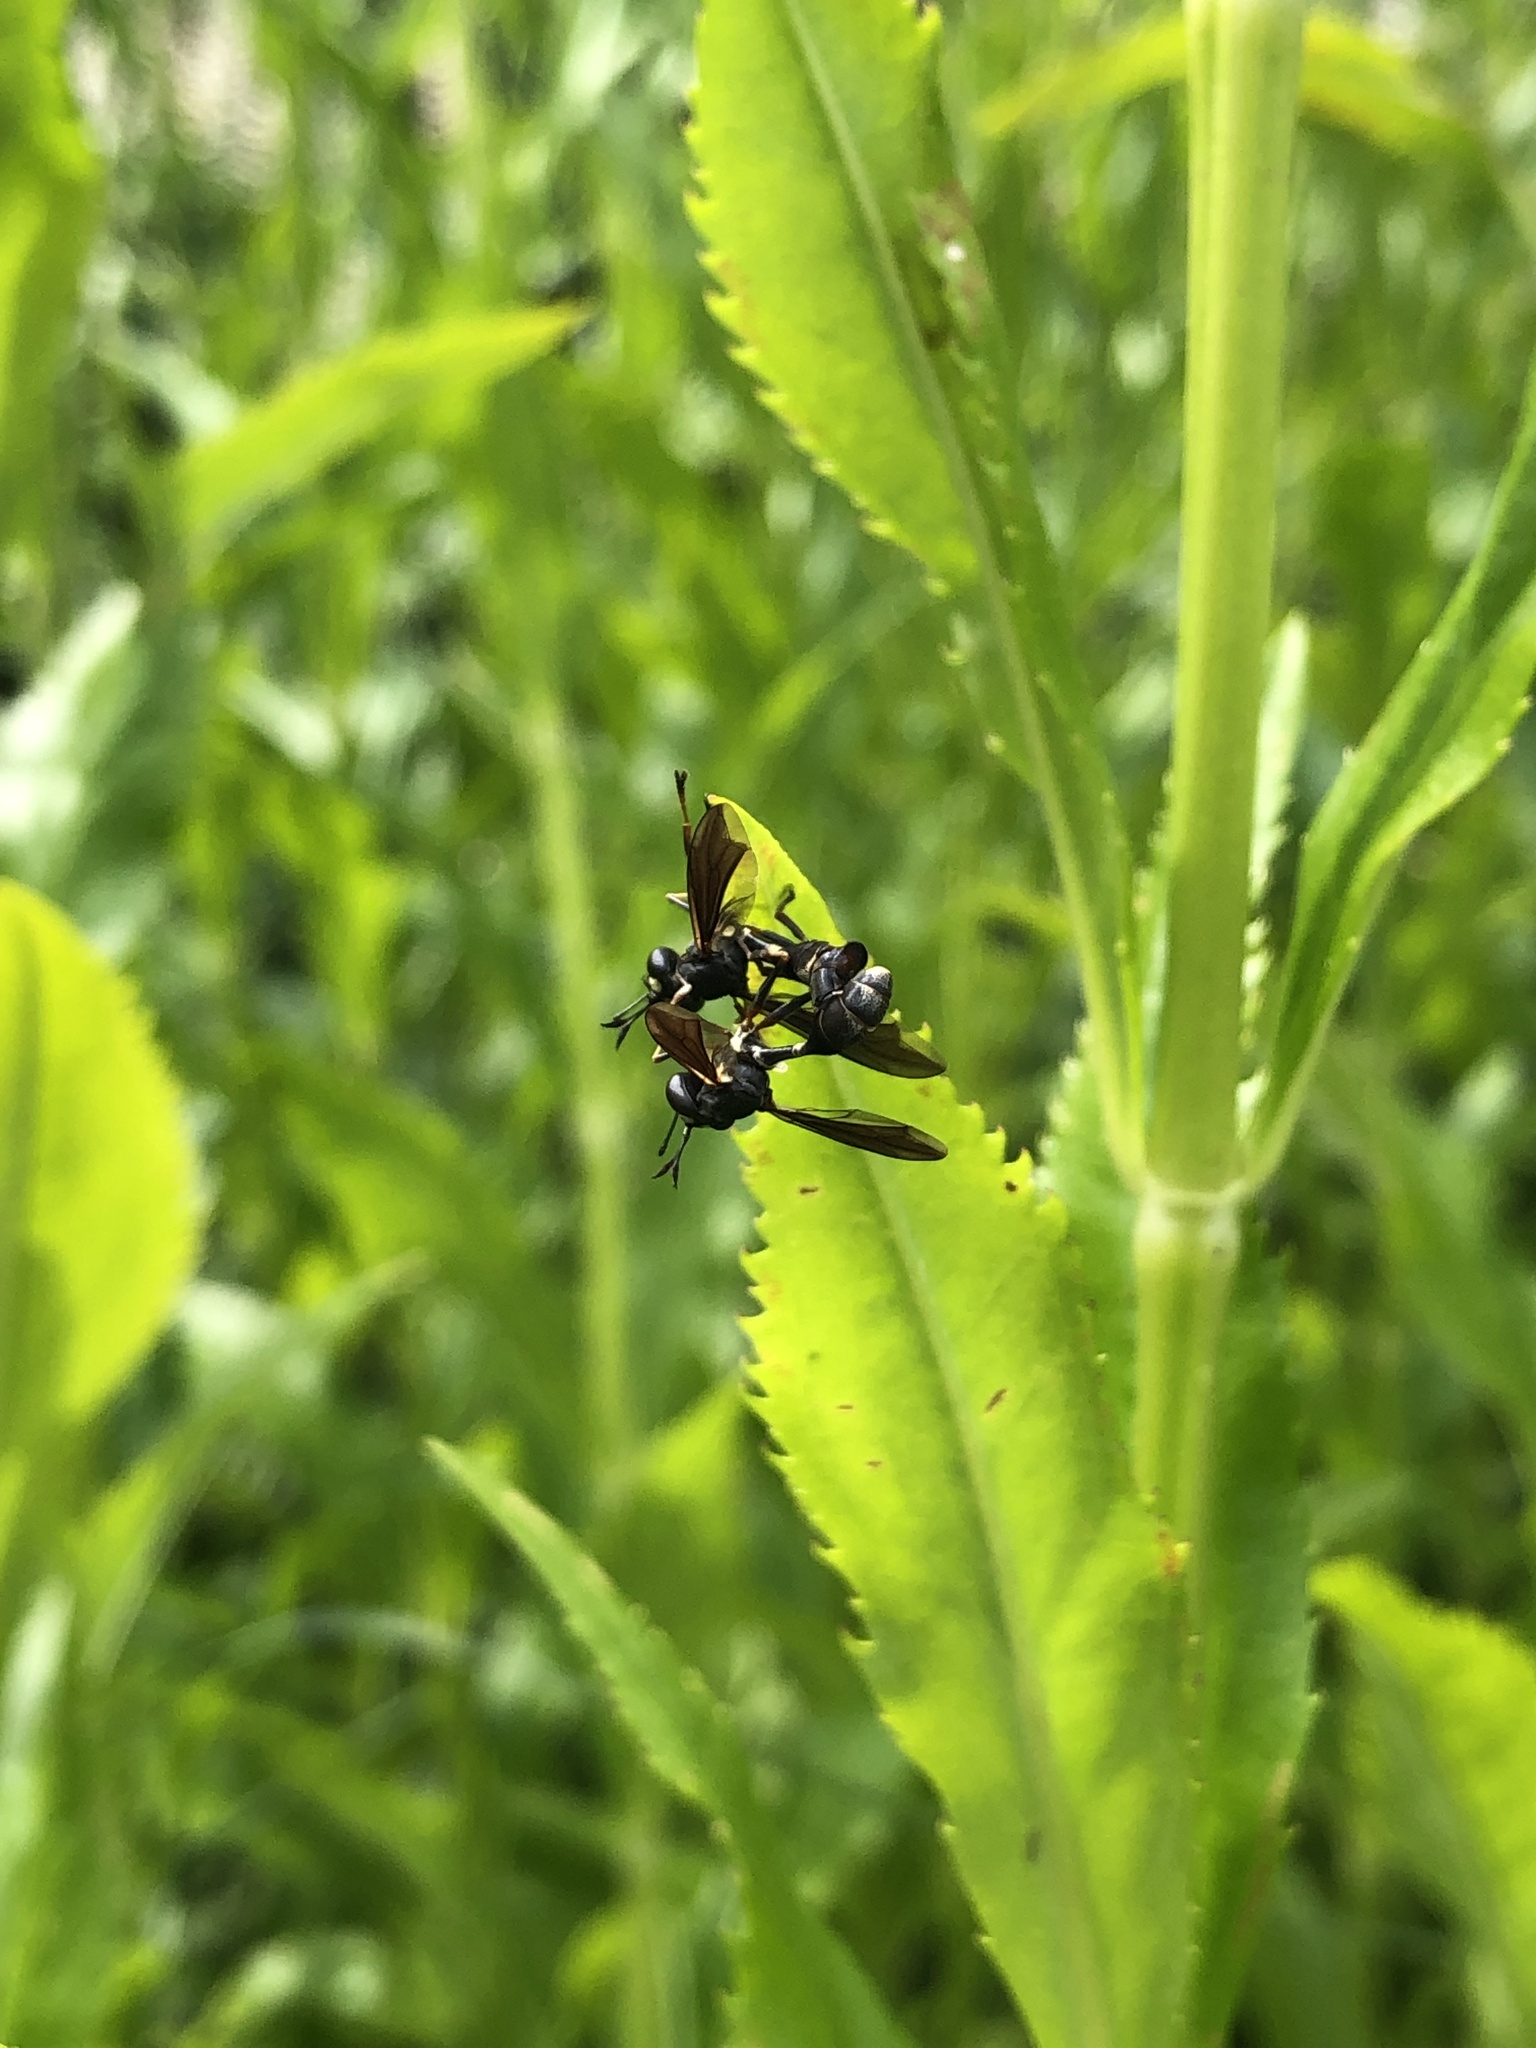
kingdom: Animalia
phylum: Arthropoda
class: Insecta
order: Diptera
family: Conopidae
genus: Physocephala
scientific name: Physocephala tibialis
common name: Common eastern physocephala
